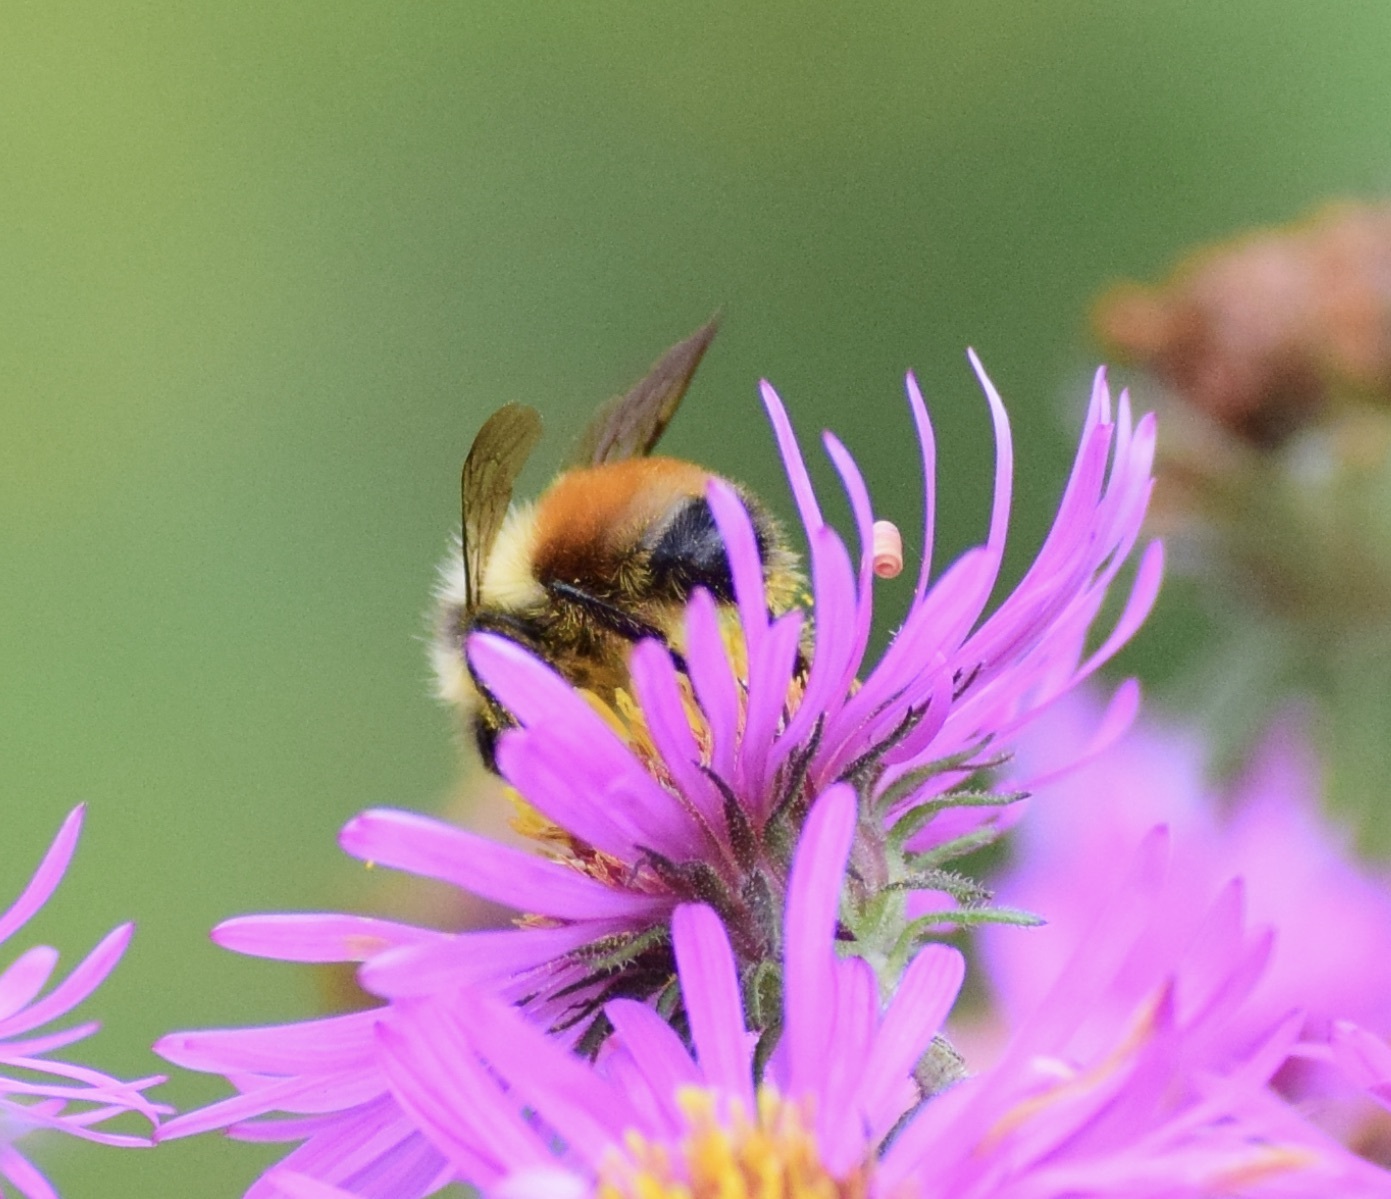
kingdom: Animalia
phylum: Arthropoda
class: Insecta
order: Hymenoptera
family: Apidae
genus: Bombus
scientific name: Bombus ternarius
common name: Tri-colored bumble bee
